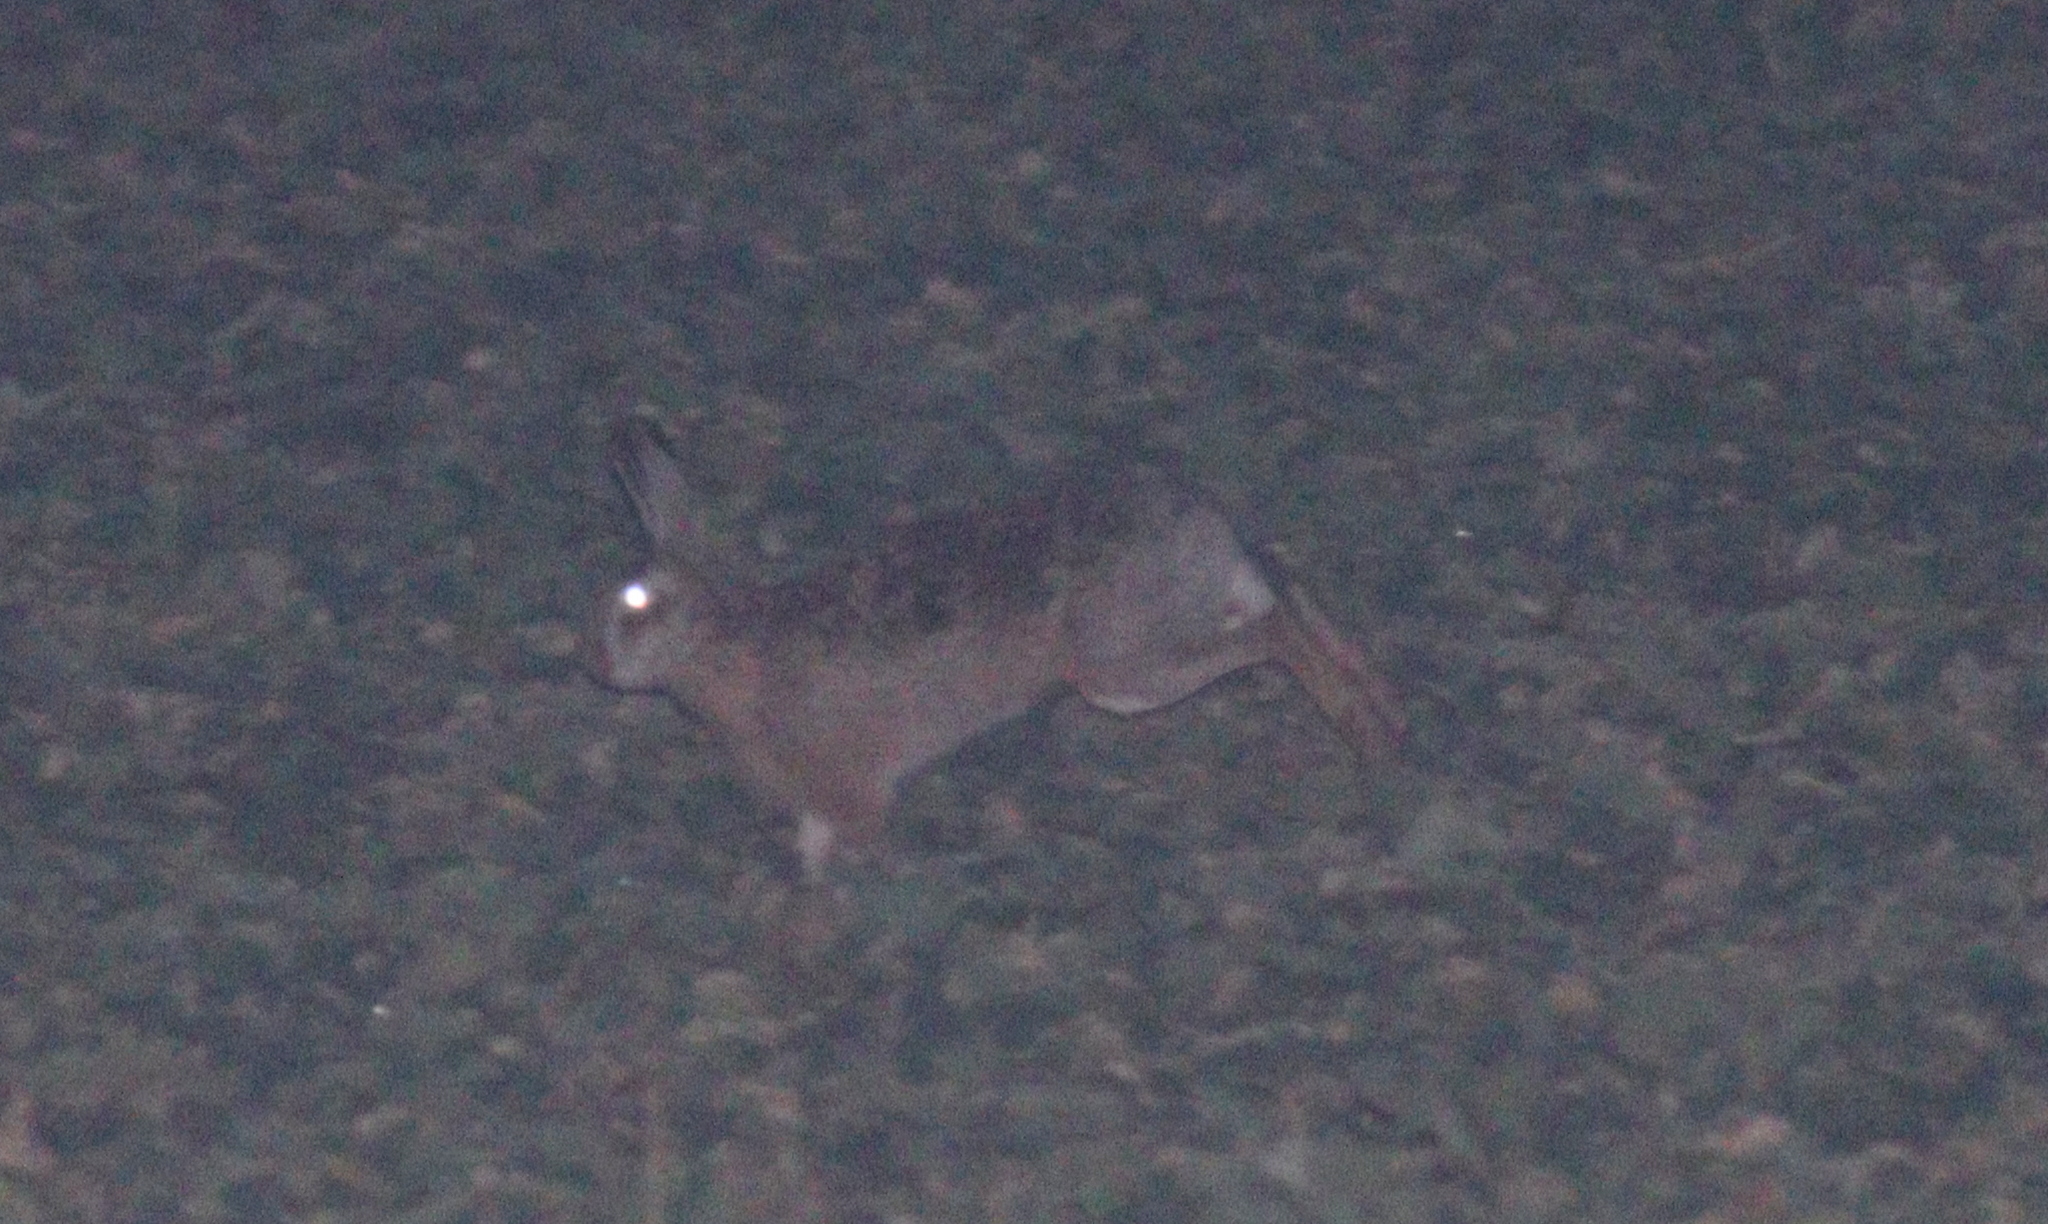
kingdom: Animalia
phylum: Chordata
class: Mammalia
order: Lagomorpha
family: Leporidae
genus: Lepus
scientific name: Lepus europaeus
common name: European hare
